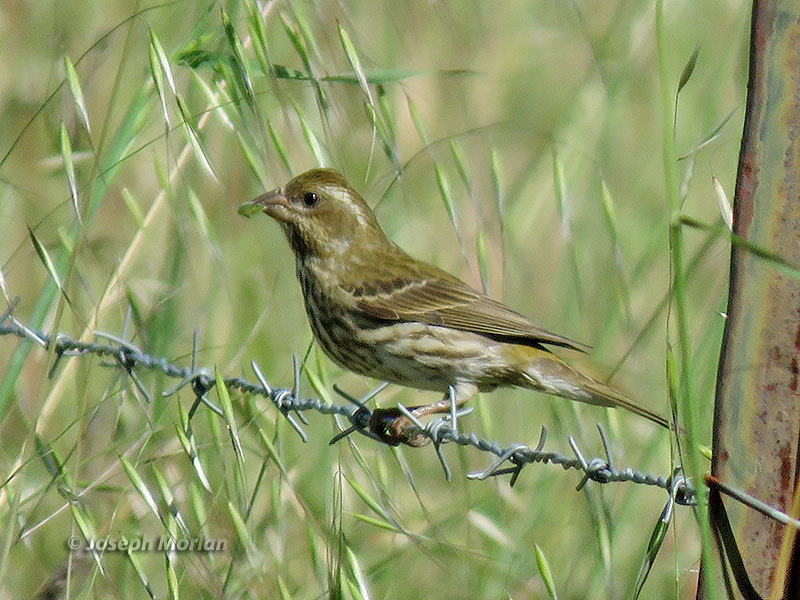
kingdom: Animalia
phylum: Chordata
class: Aves
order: Passeriformes
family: Fringillidae
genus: Haemorhous
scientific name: Haemorhous purpureus
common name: Purple finch
